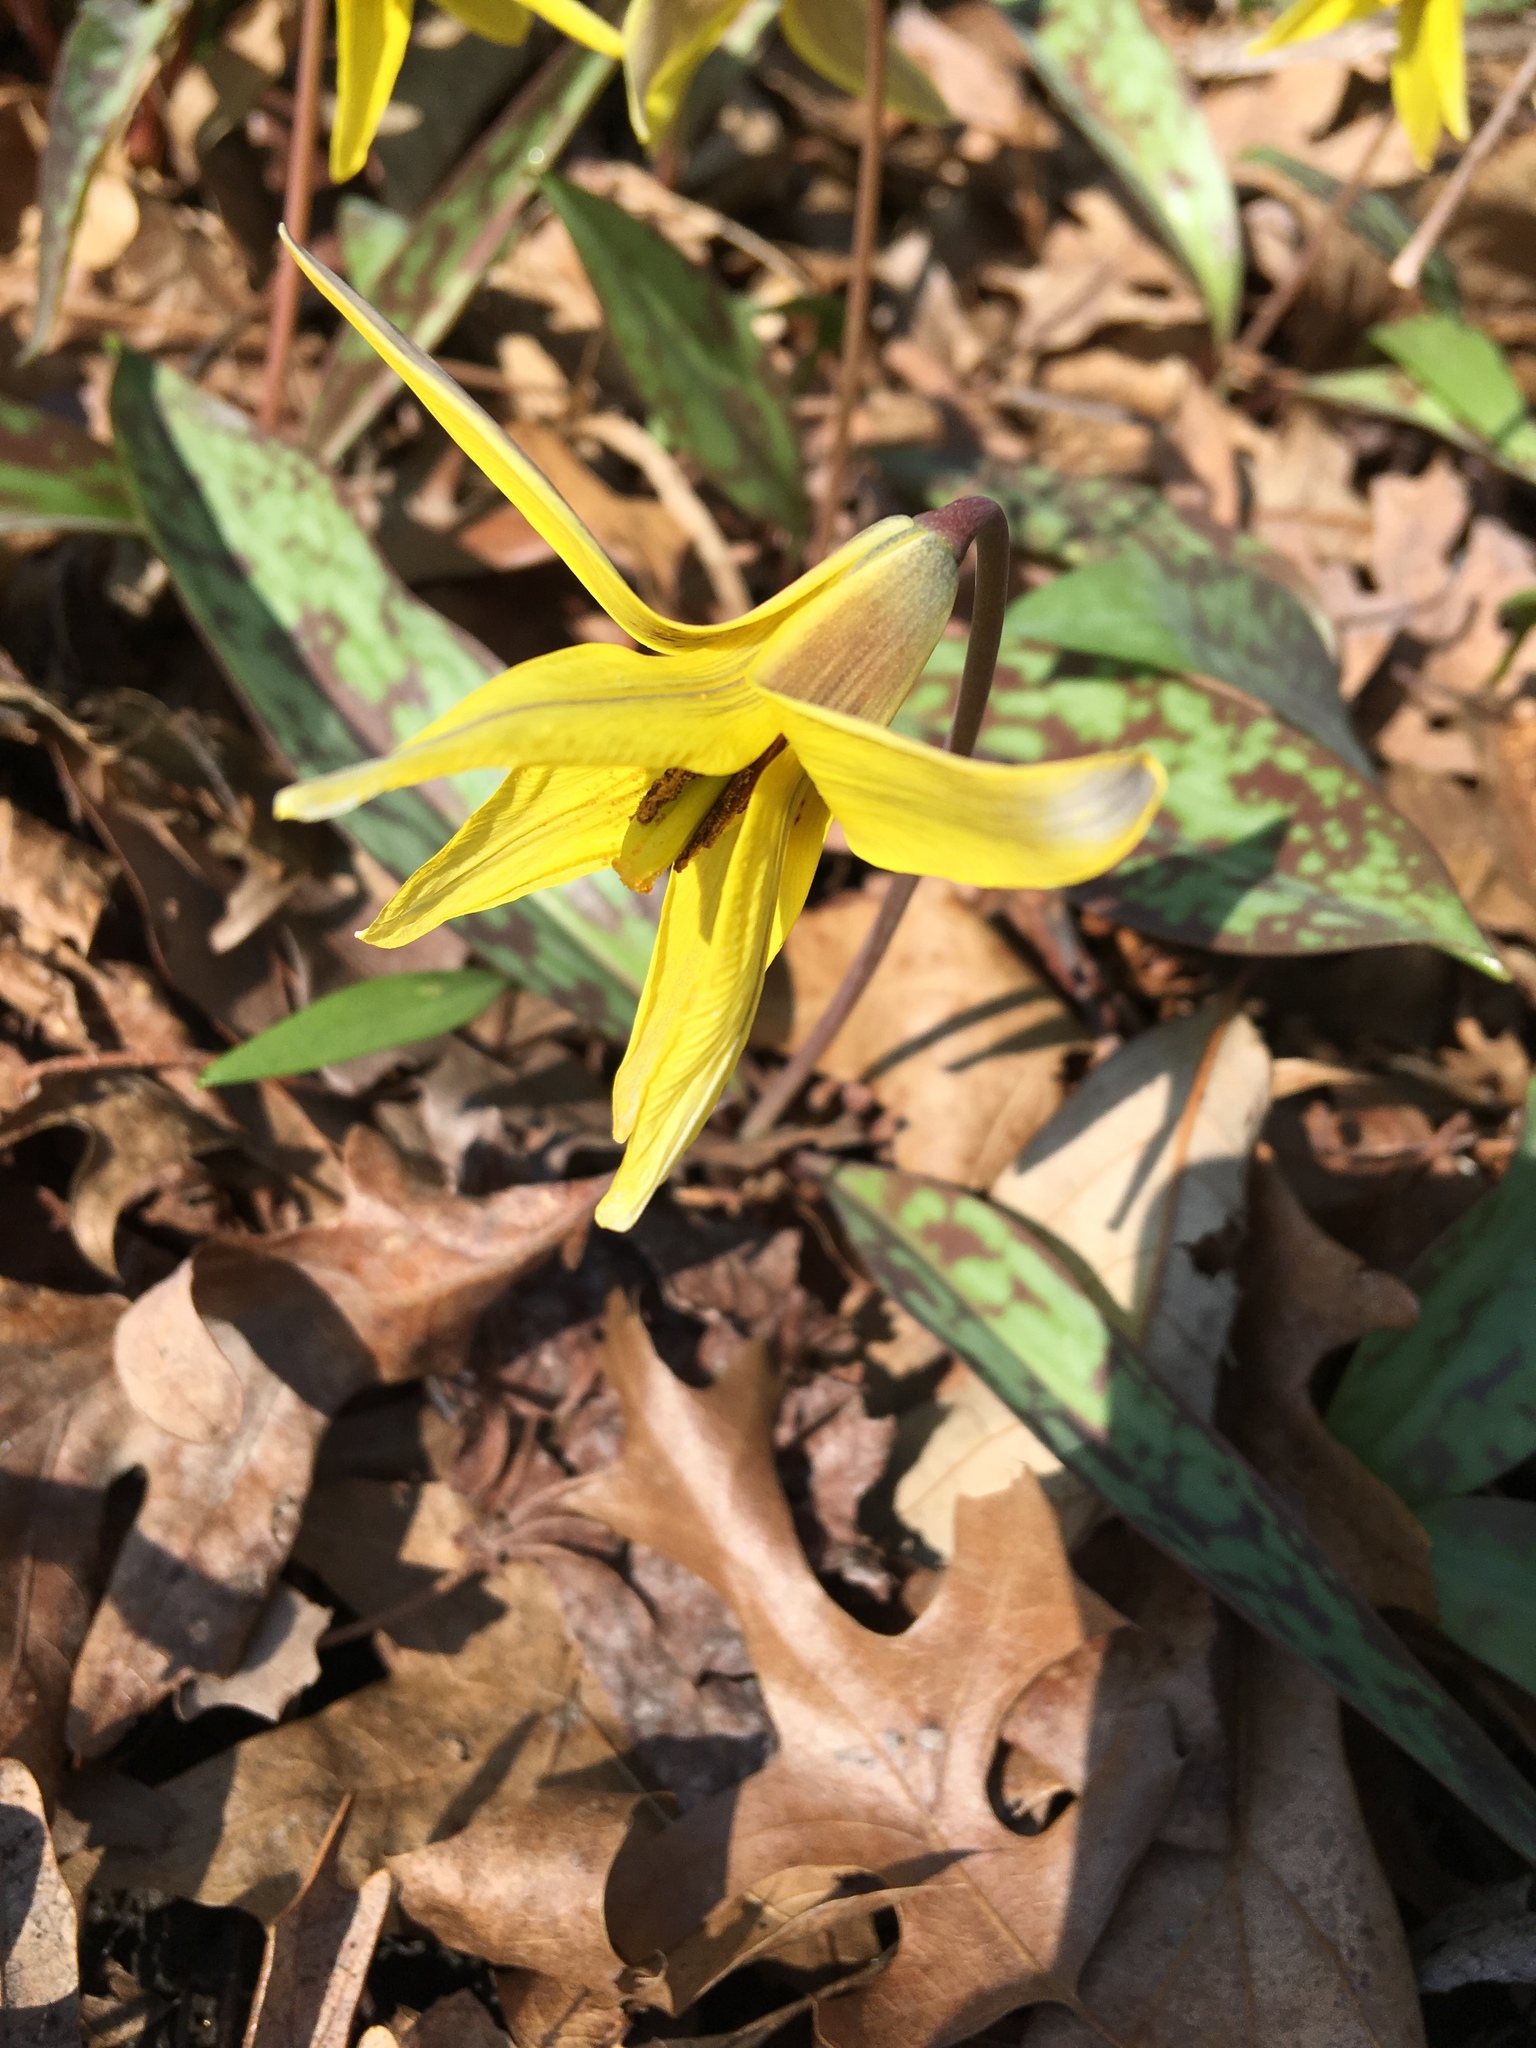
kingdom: Plantae
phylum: Tracheophyta
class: Liliopsida
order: Liliales
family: Liliaceae
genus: Erythronium
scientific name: Erythronium americanum
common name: Yellow adder's-tongue
